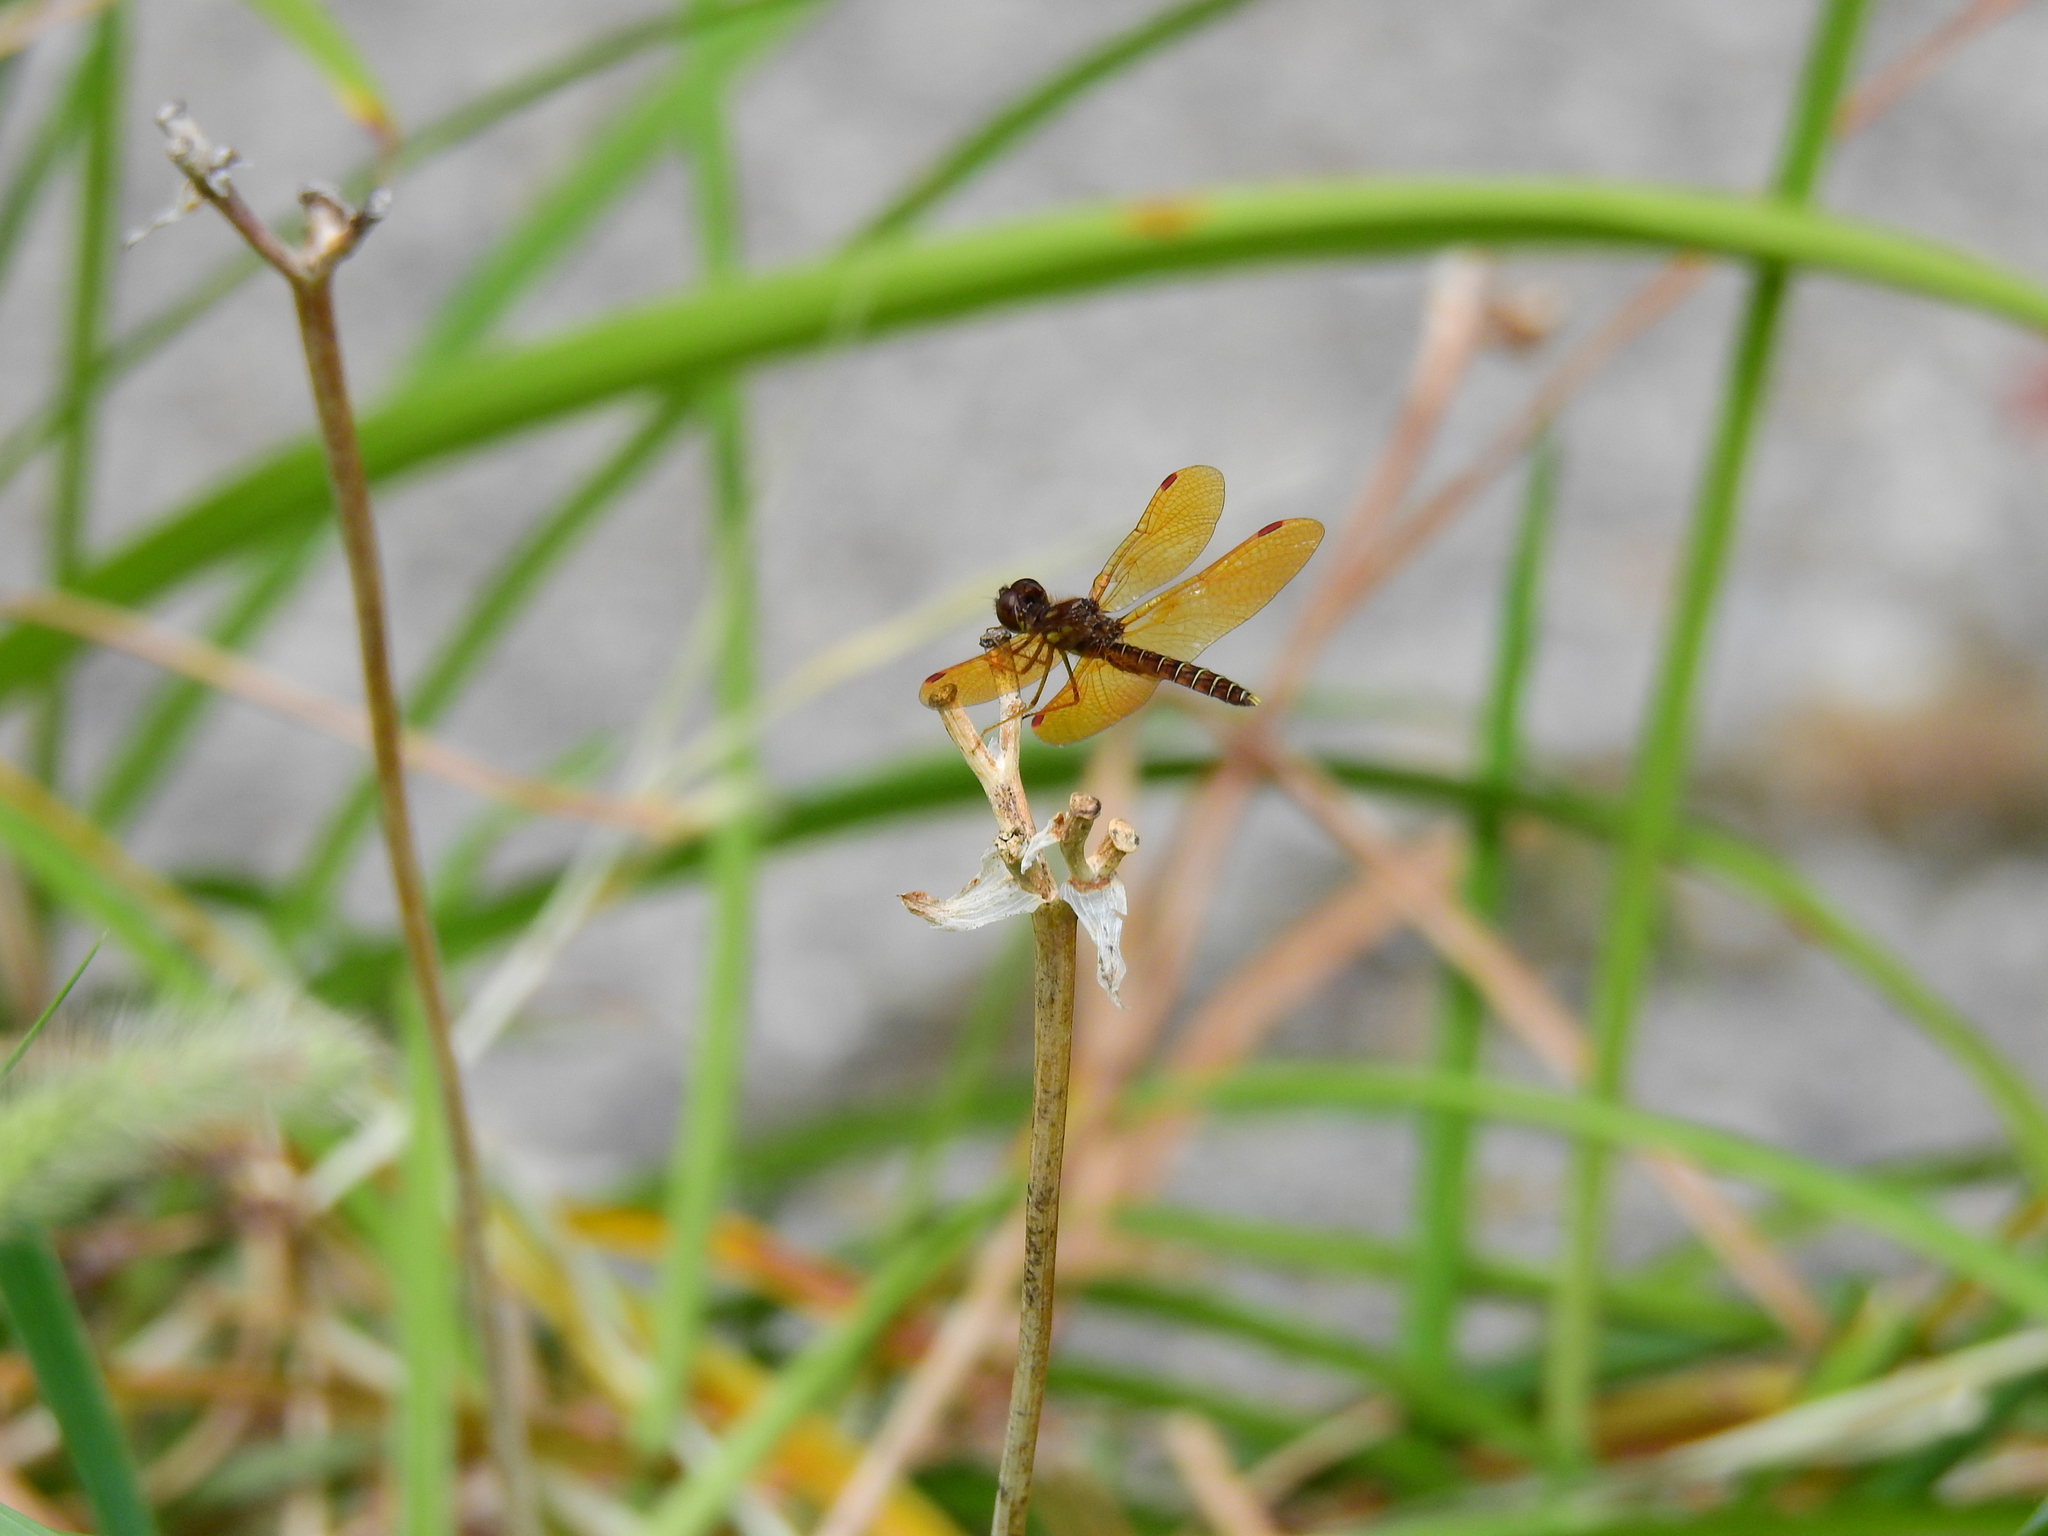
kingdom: Animalia
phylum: Arthropoda
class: Insecta
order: Odonata
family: Libellulidae
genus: Perithemis
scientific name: Perithemis tenera
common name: Eastern amberwing
